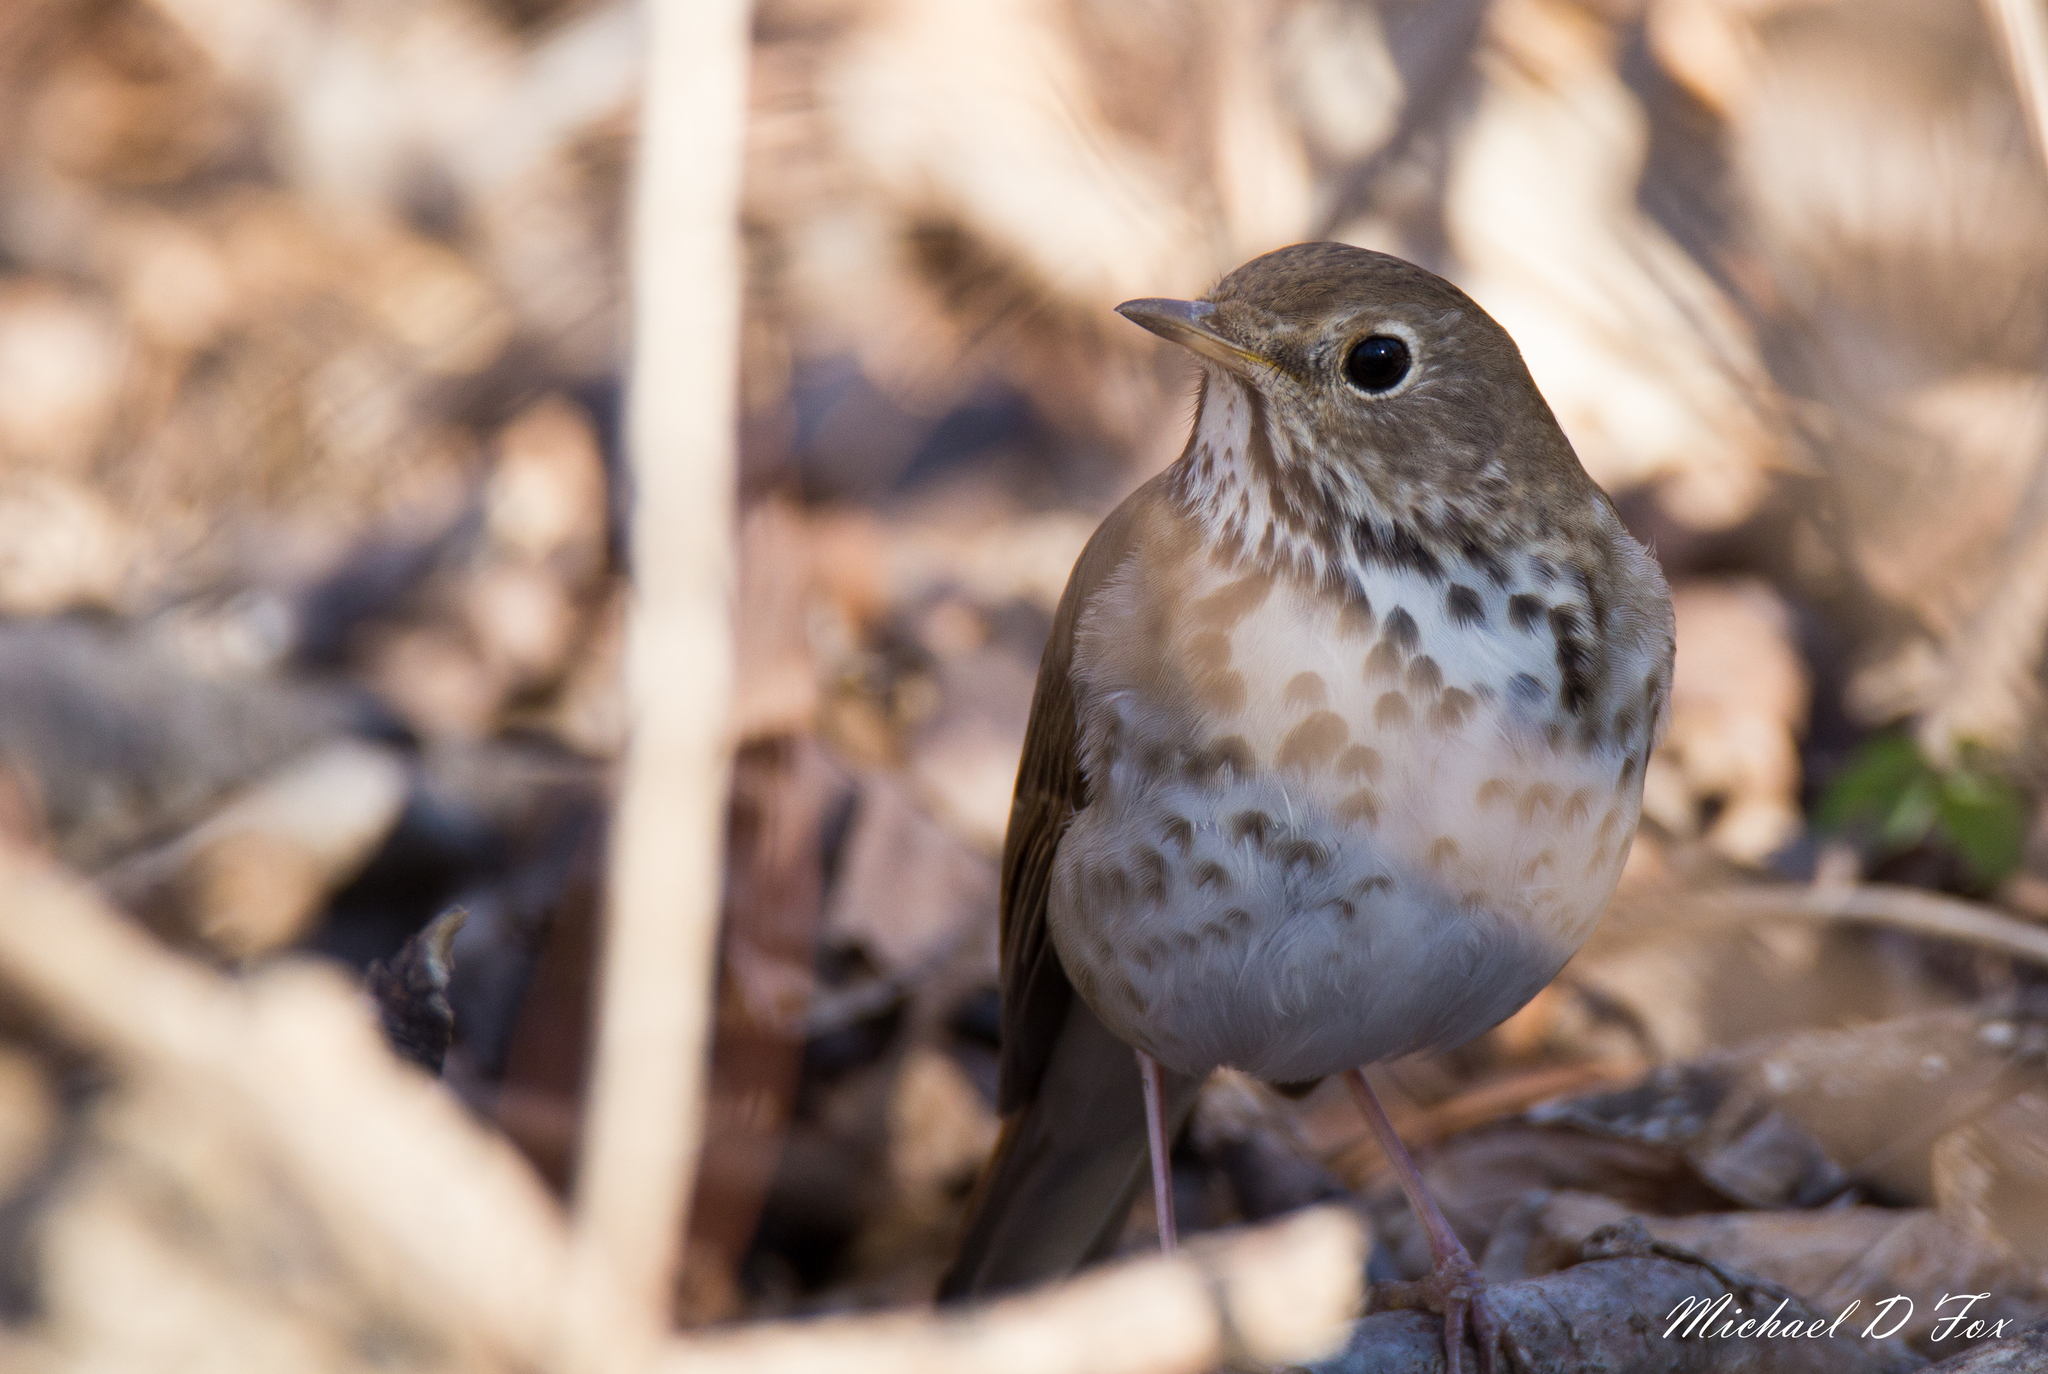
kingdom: Animalia
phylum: Chordata
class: Aves
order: Passeriformes
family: Turdidae
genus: Catharus
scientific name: Catharus guttatus
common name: Hermit thrush
